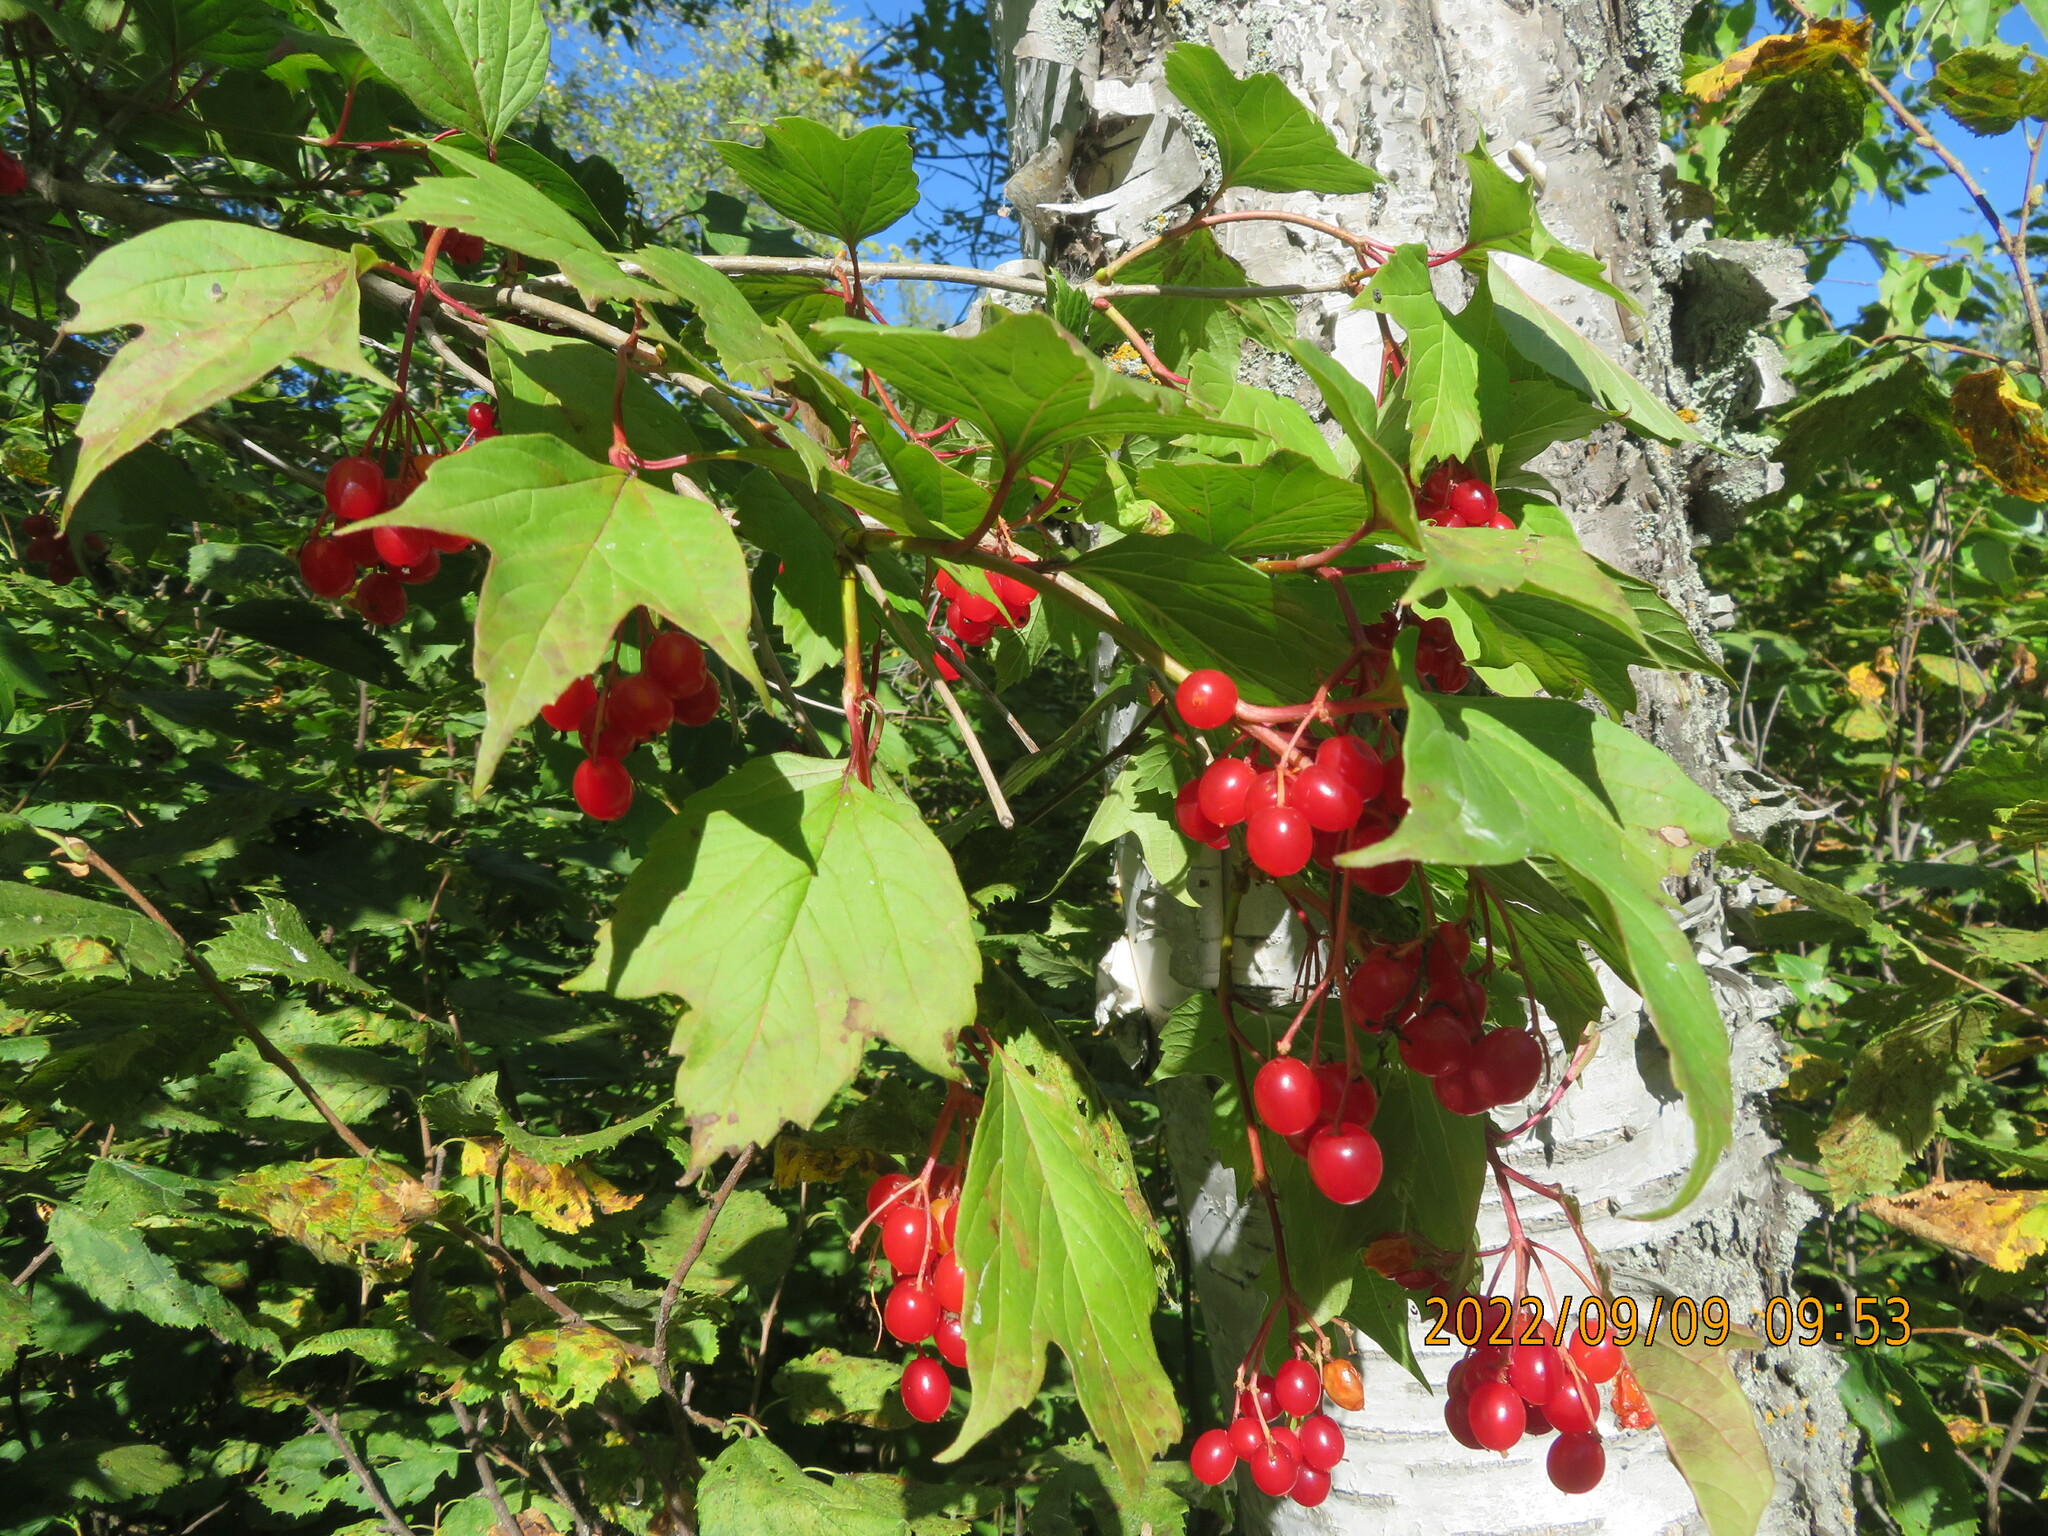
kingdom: Plantae
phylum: Tracheophyta
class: Magnoliopsida
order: Dipsacales
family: Viburnaceae
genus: Viburnum
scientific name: Viburnum trilobum
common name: American cranberrybush
